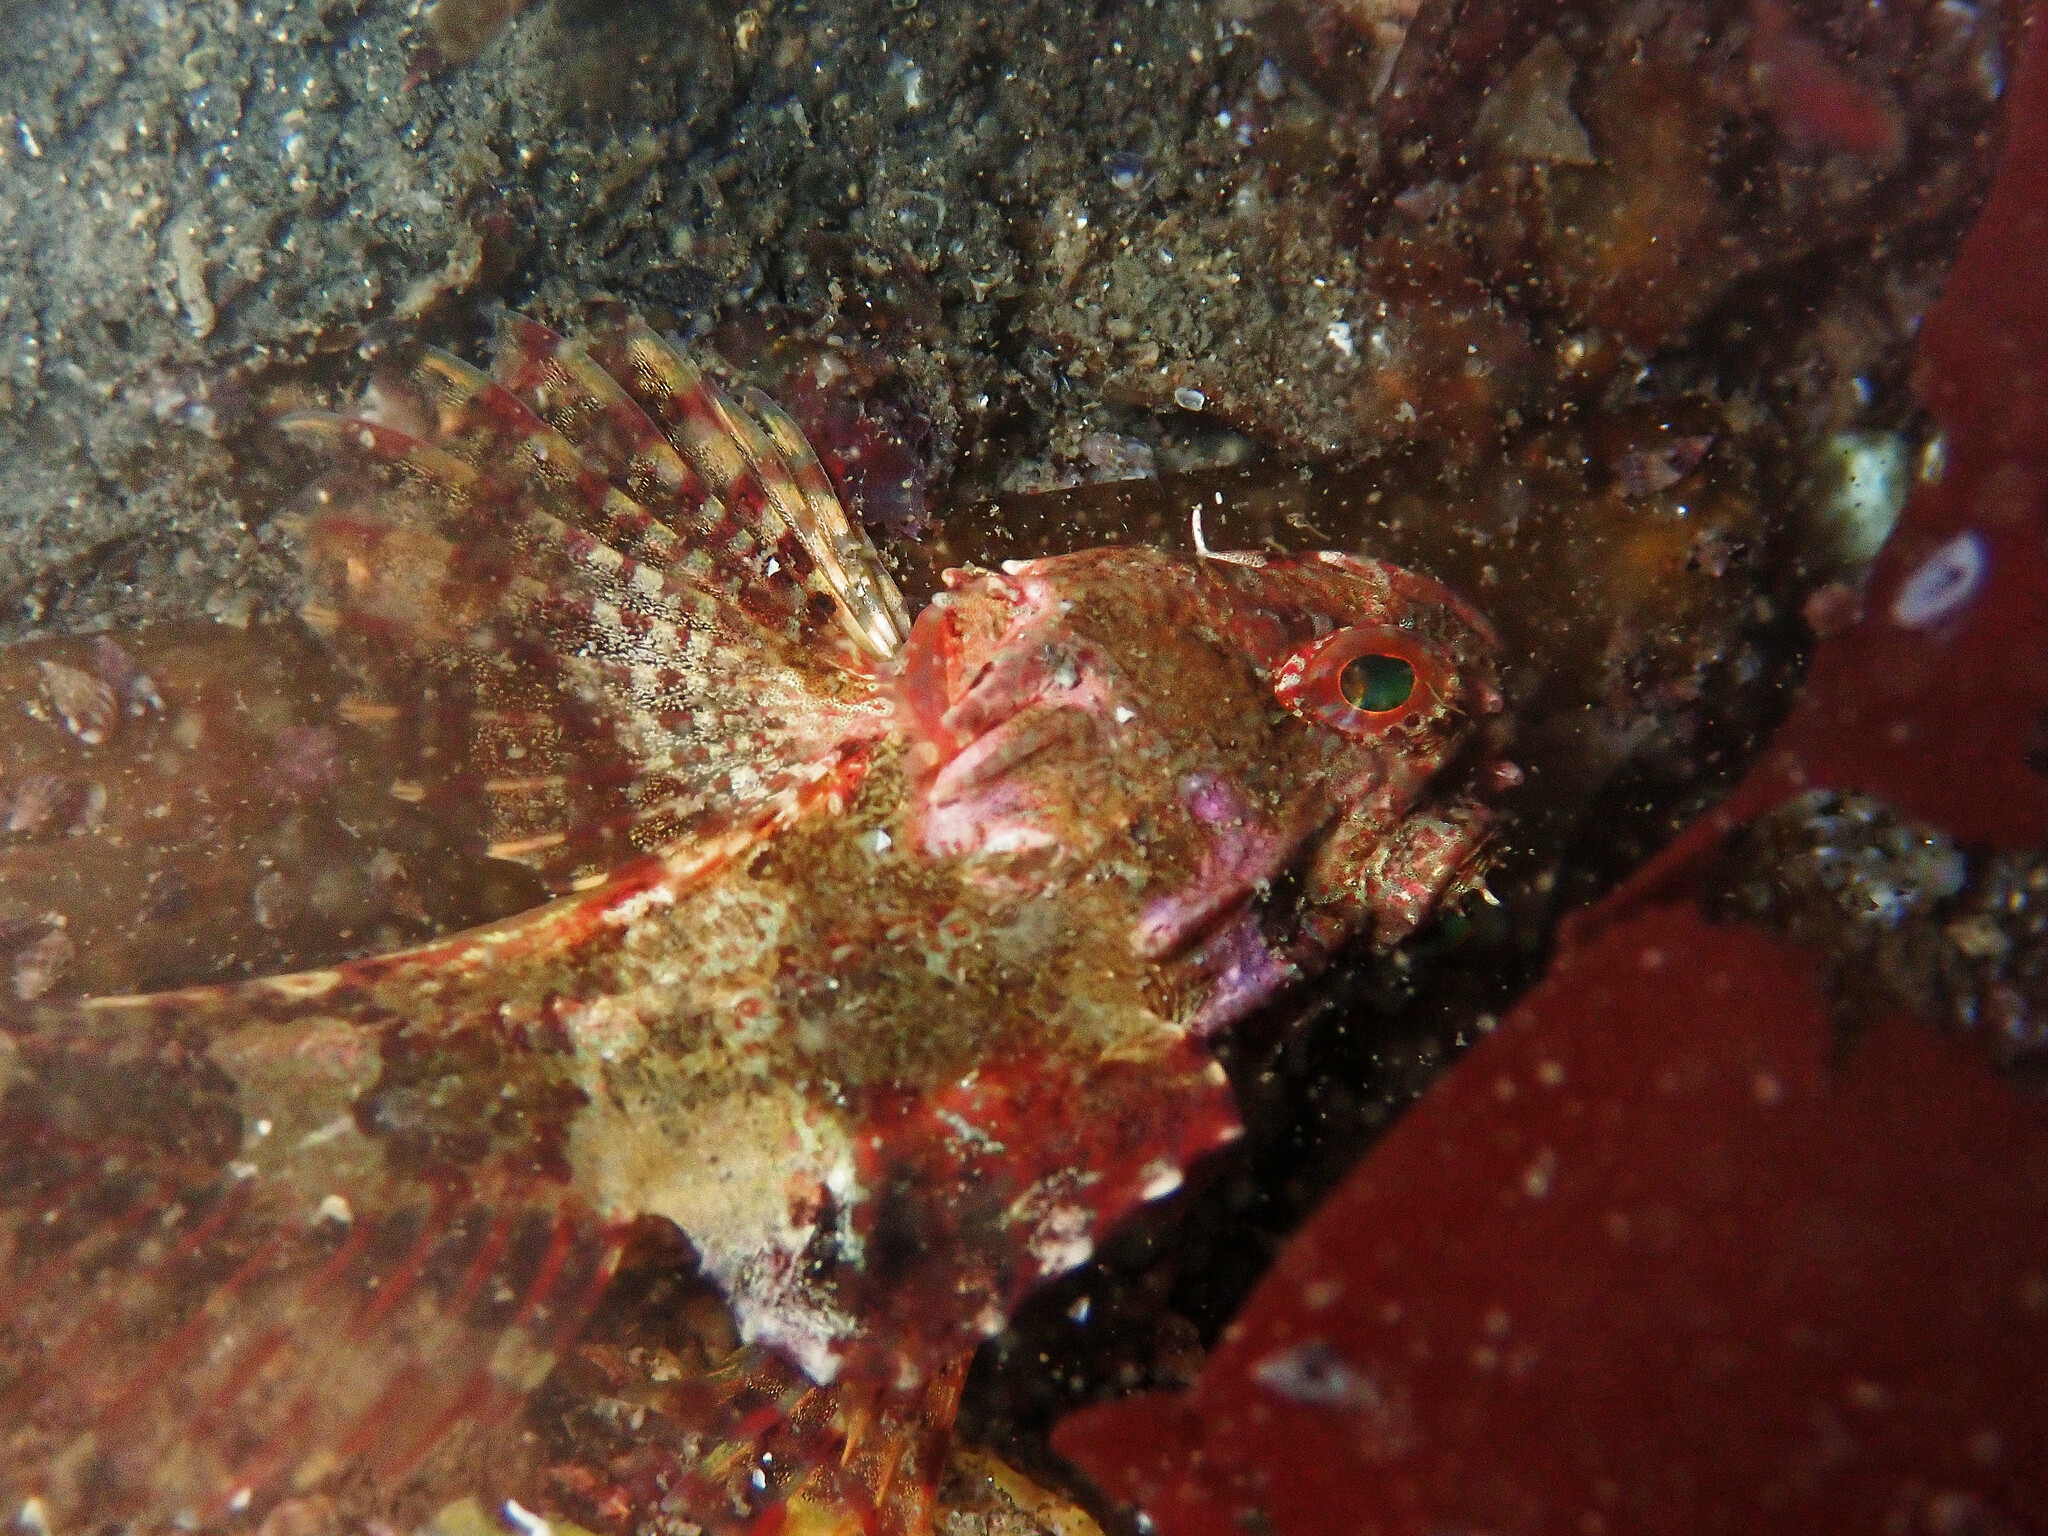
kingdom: Animalia
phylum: Chordata
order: Scorpaeniformes
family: Cottidae
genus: Taurulus
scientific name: Taurulus bubalis
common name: Sea scorpion
